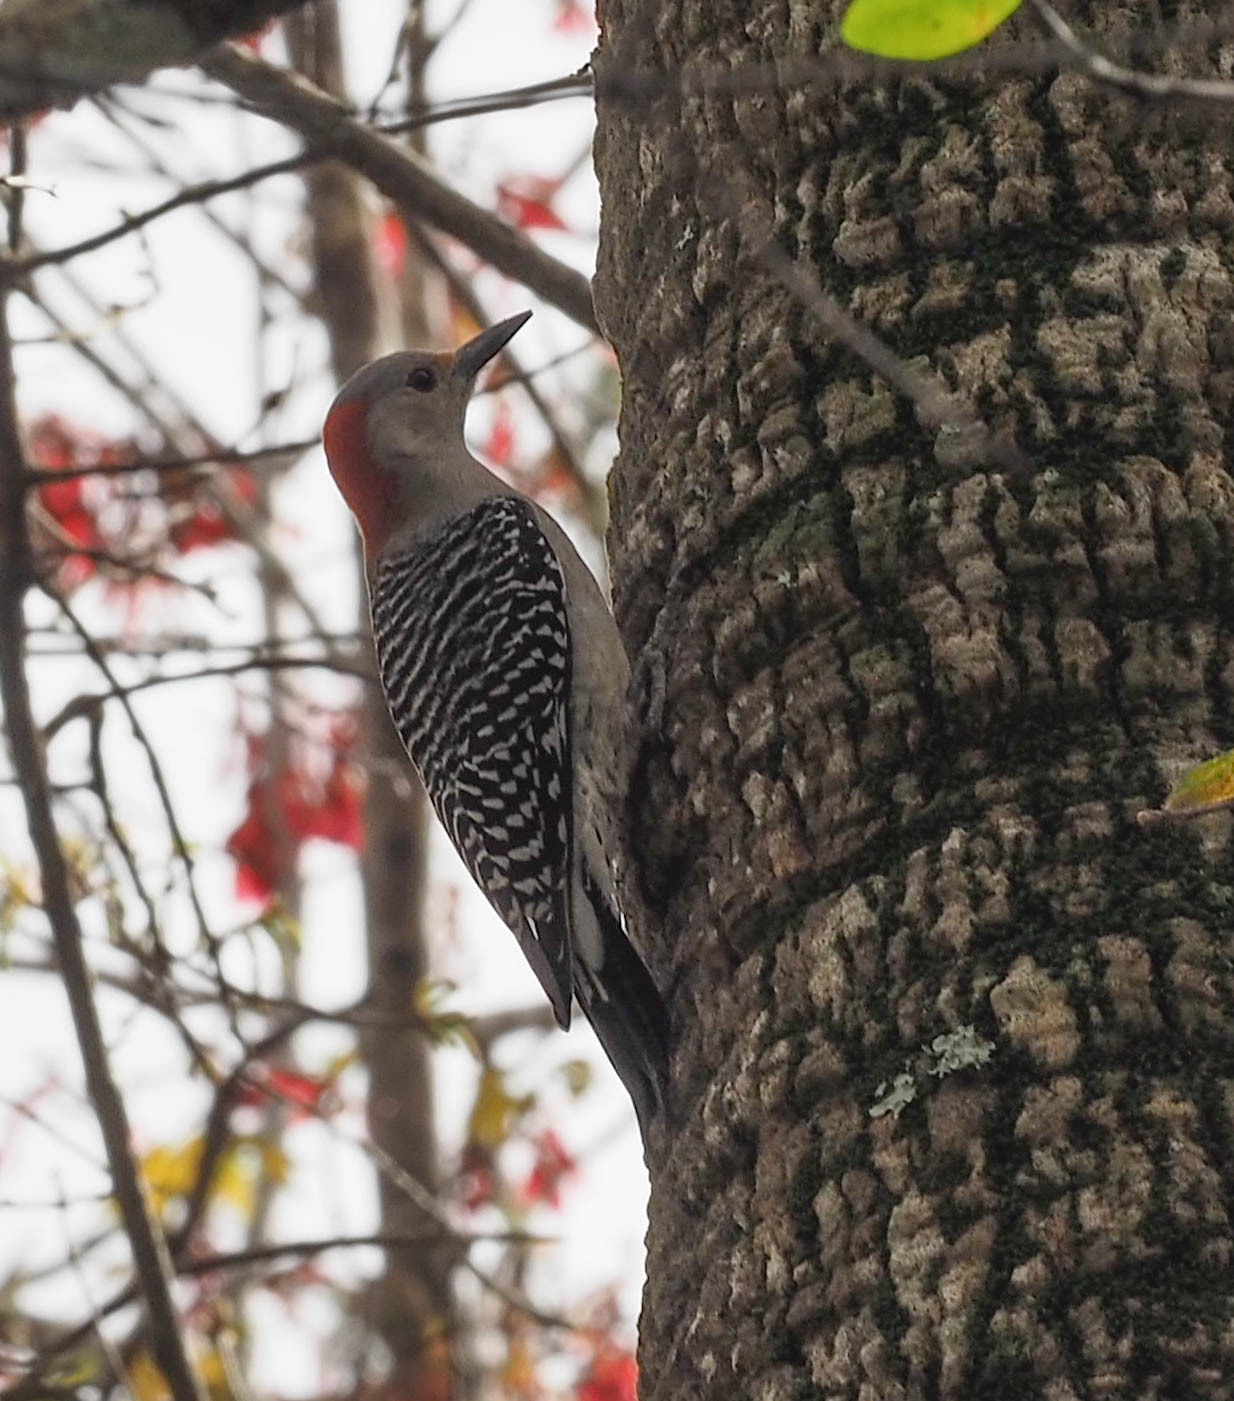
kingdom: Animalia
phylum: Chordata
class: Aves
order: Piciformes
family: Picidae
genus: Melanerpes
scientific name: Melanerpes carolinus
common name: Red-bellied woodpecker
